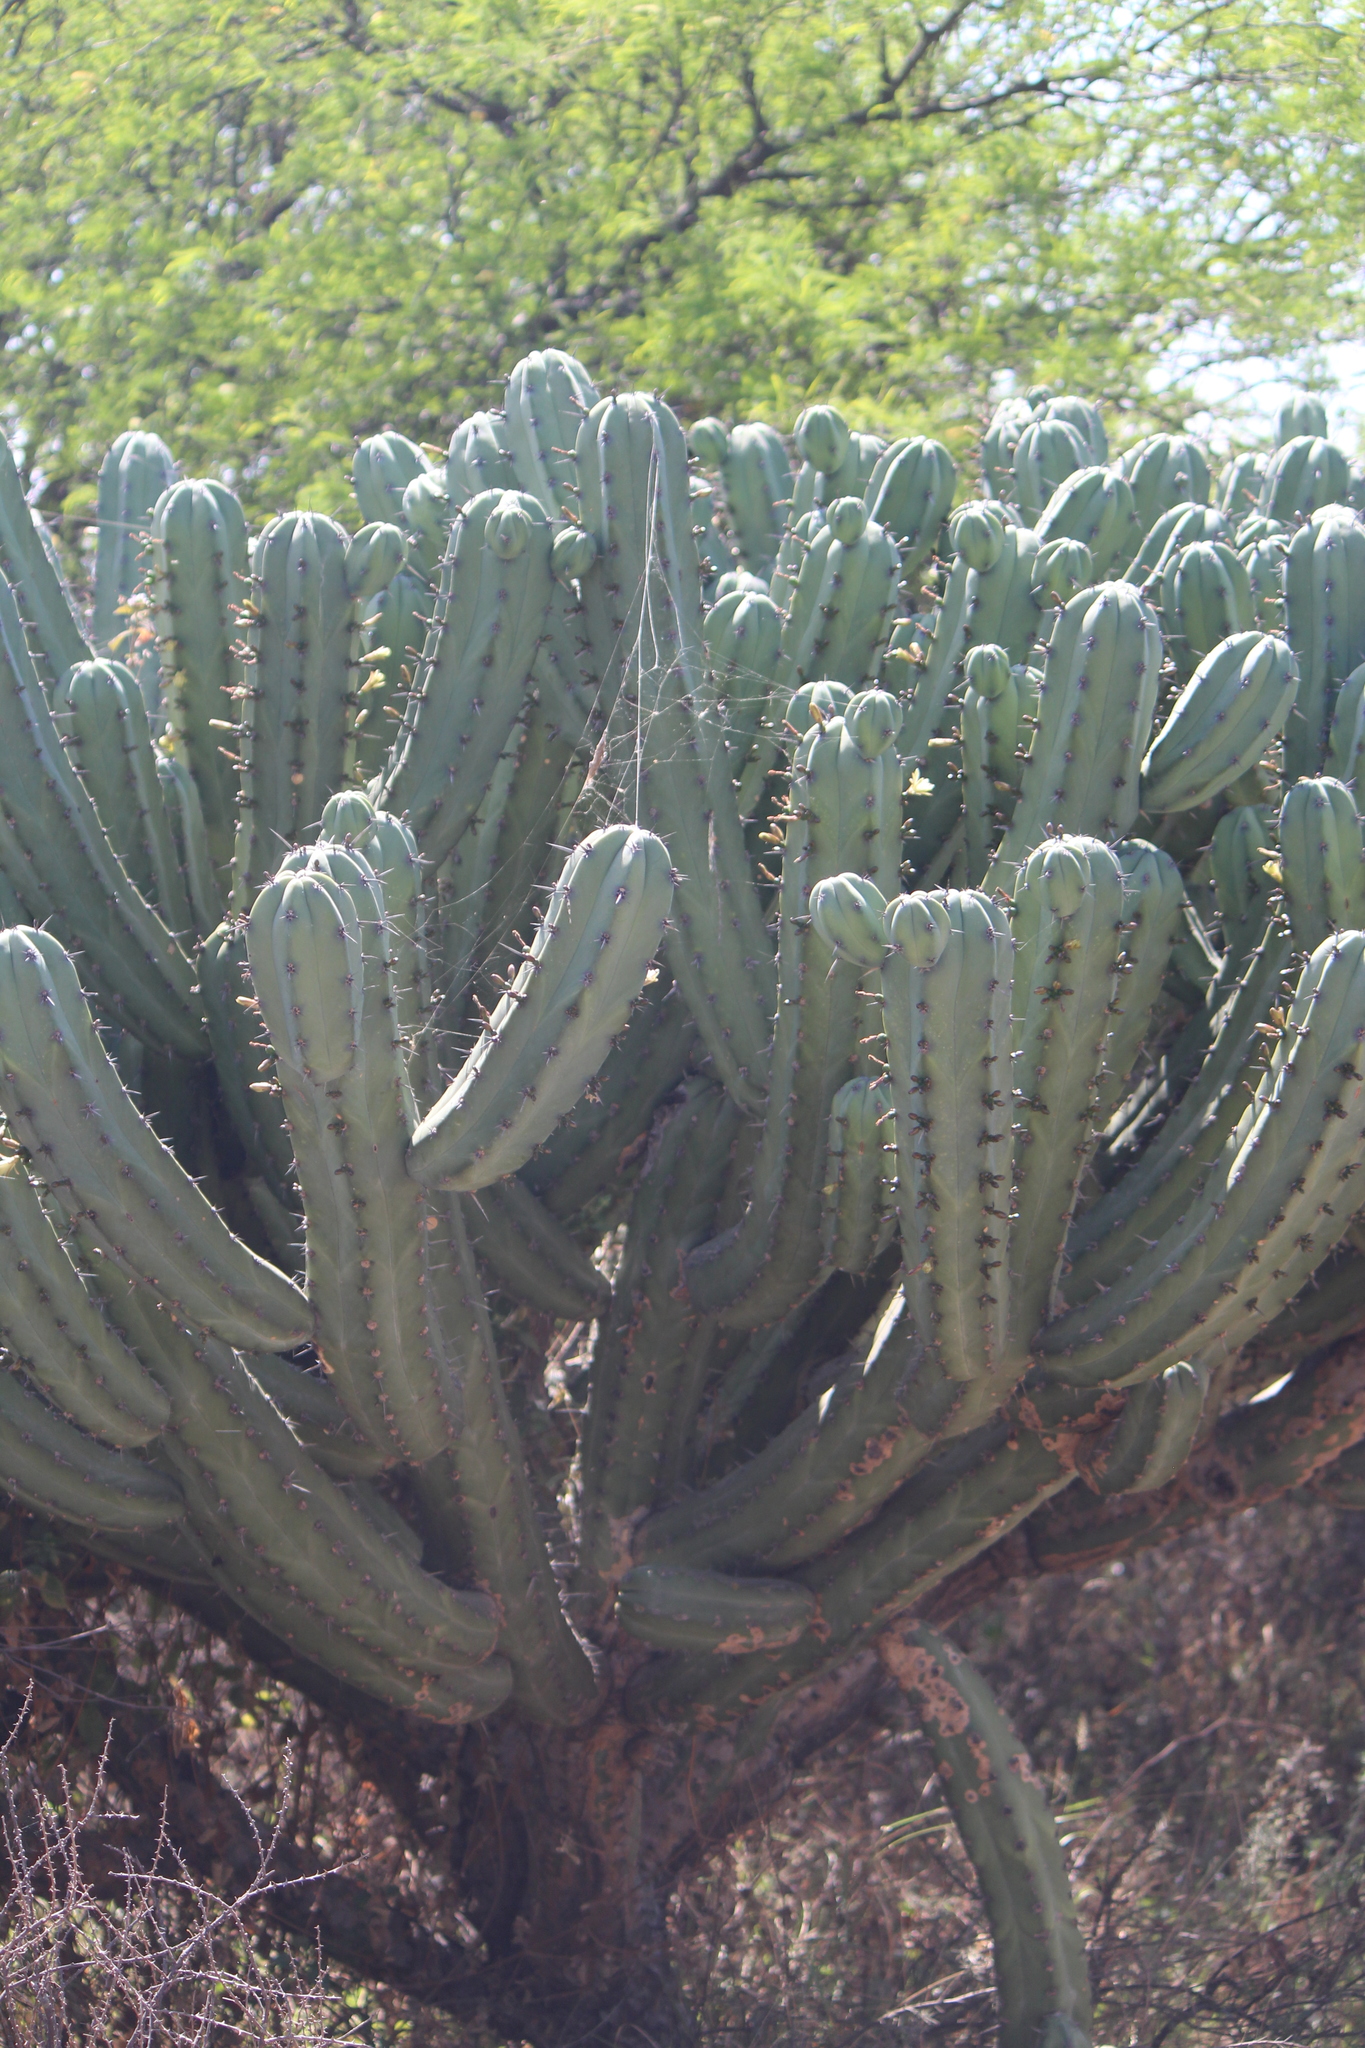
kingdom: Plantae
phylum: Tracheophyta
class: Magnoliopsida
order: Caryophyllales
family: Cactaceae
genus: Myrtillocactus
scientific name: Myrtillocactus geometrizans
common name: Bilberry cactus
